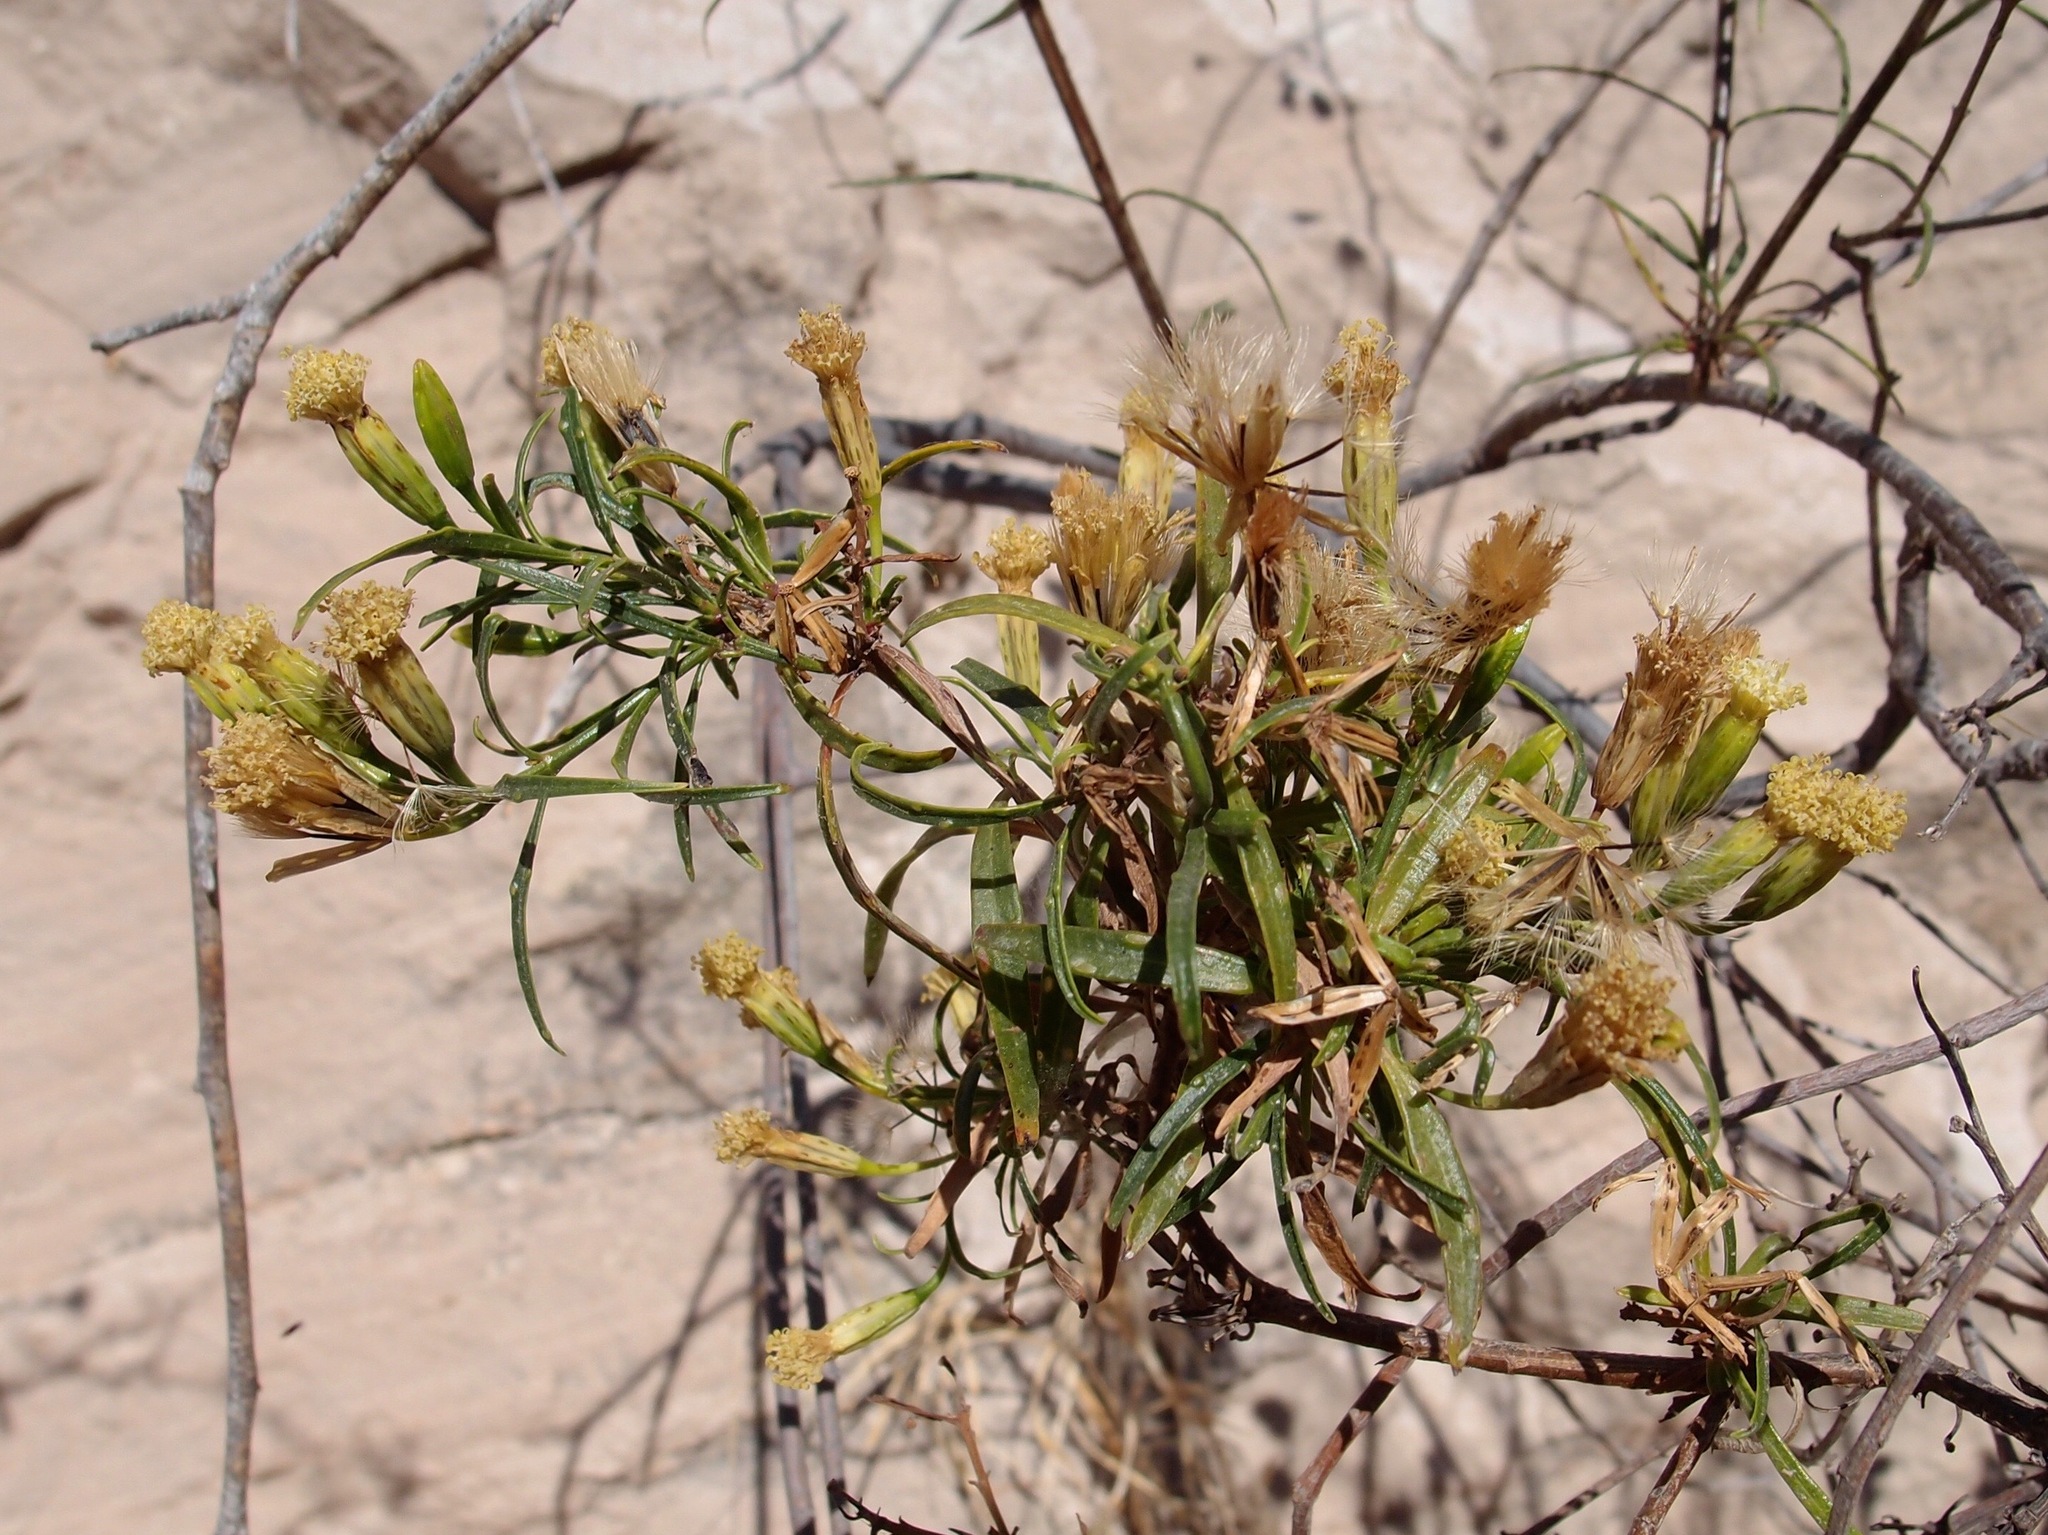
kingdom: Plantae
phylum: Tracheophyta
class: Magnoliopsida
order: Asterales
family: Asteraceae
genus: Porophyllum
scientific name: Porophyllum pausodynum
